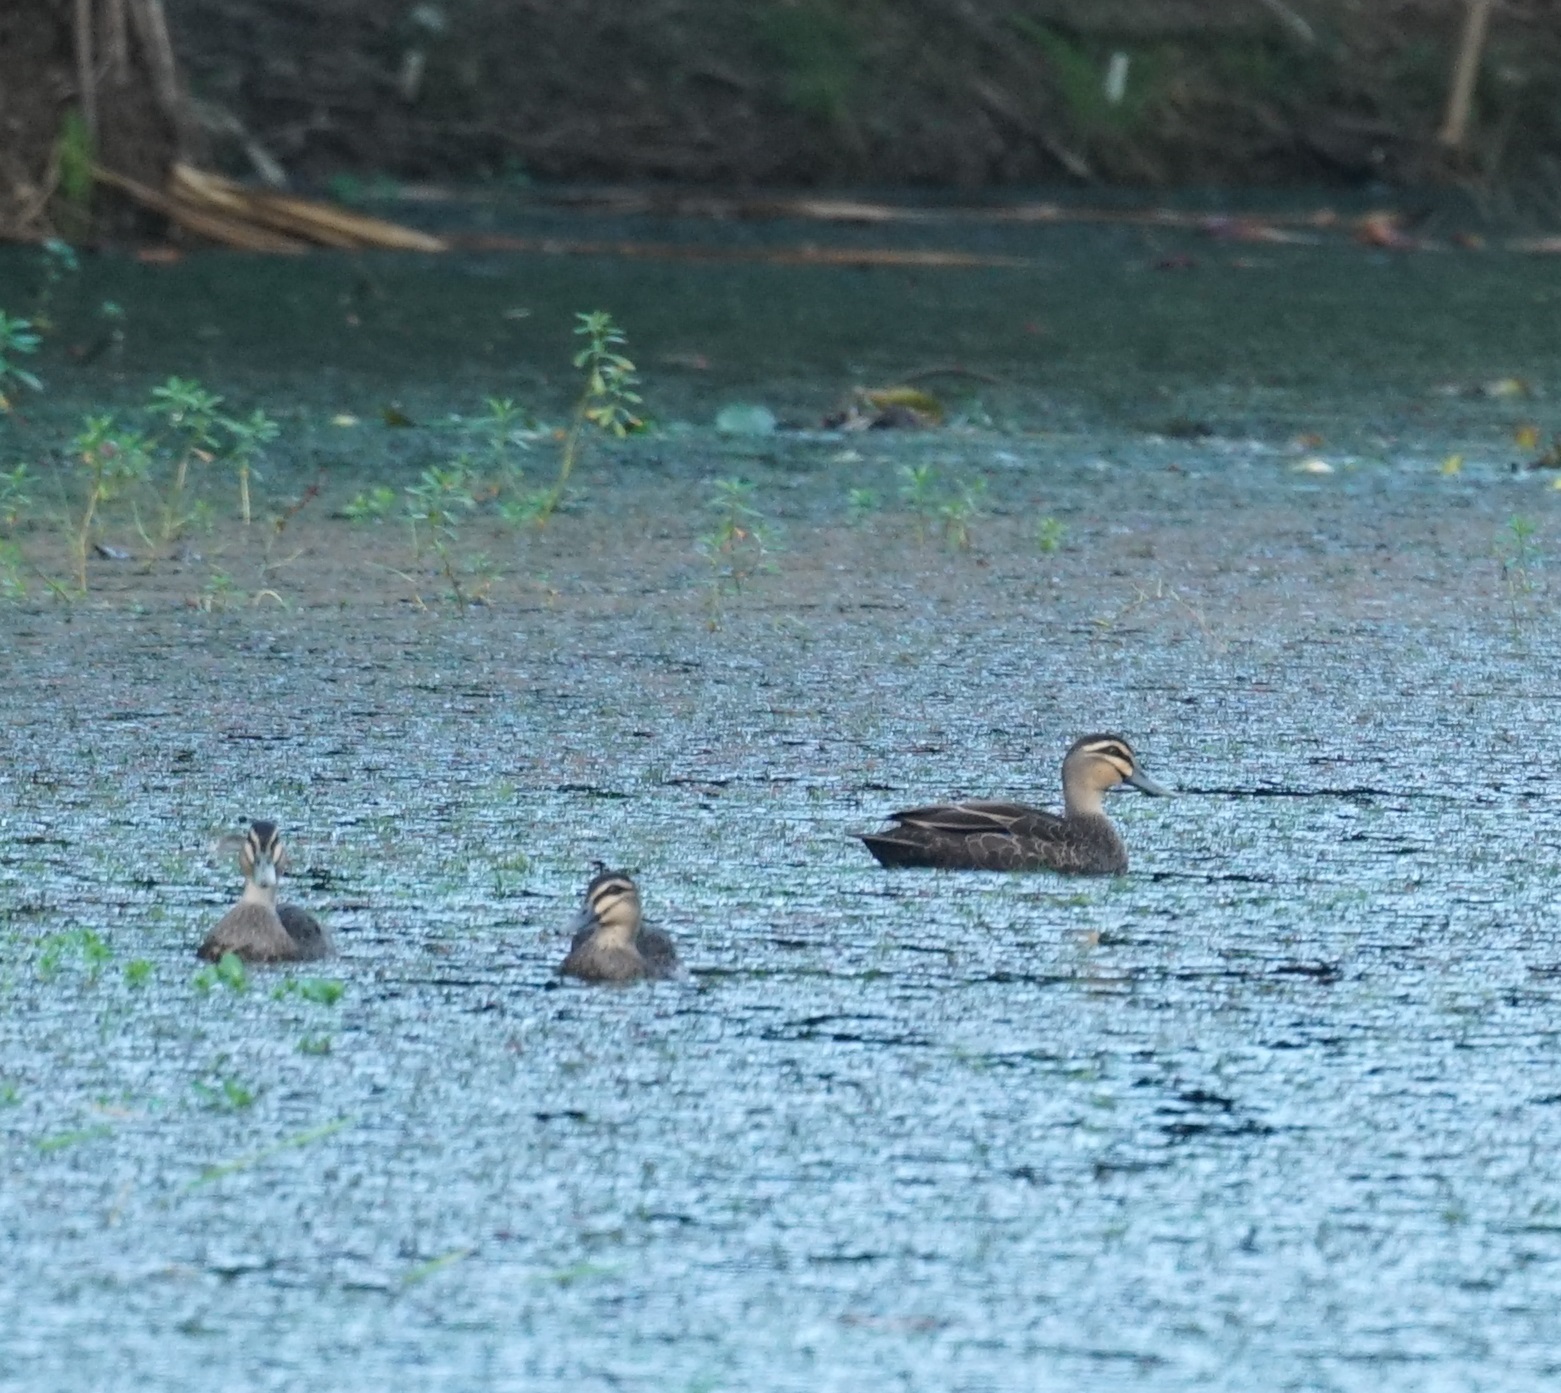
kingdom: Animalia
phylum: Chordata
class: Aves
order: Anseriformes
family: Anatidae
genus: Anas
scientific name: Anas superciliosa
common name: Pacific black duck
